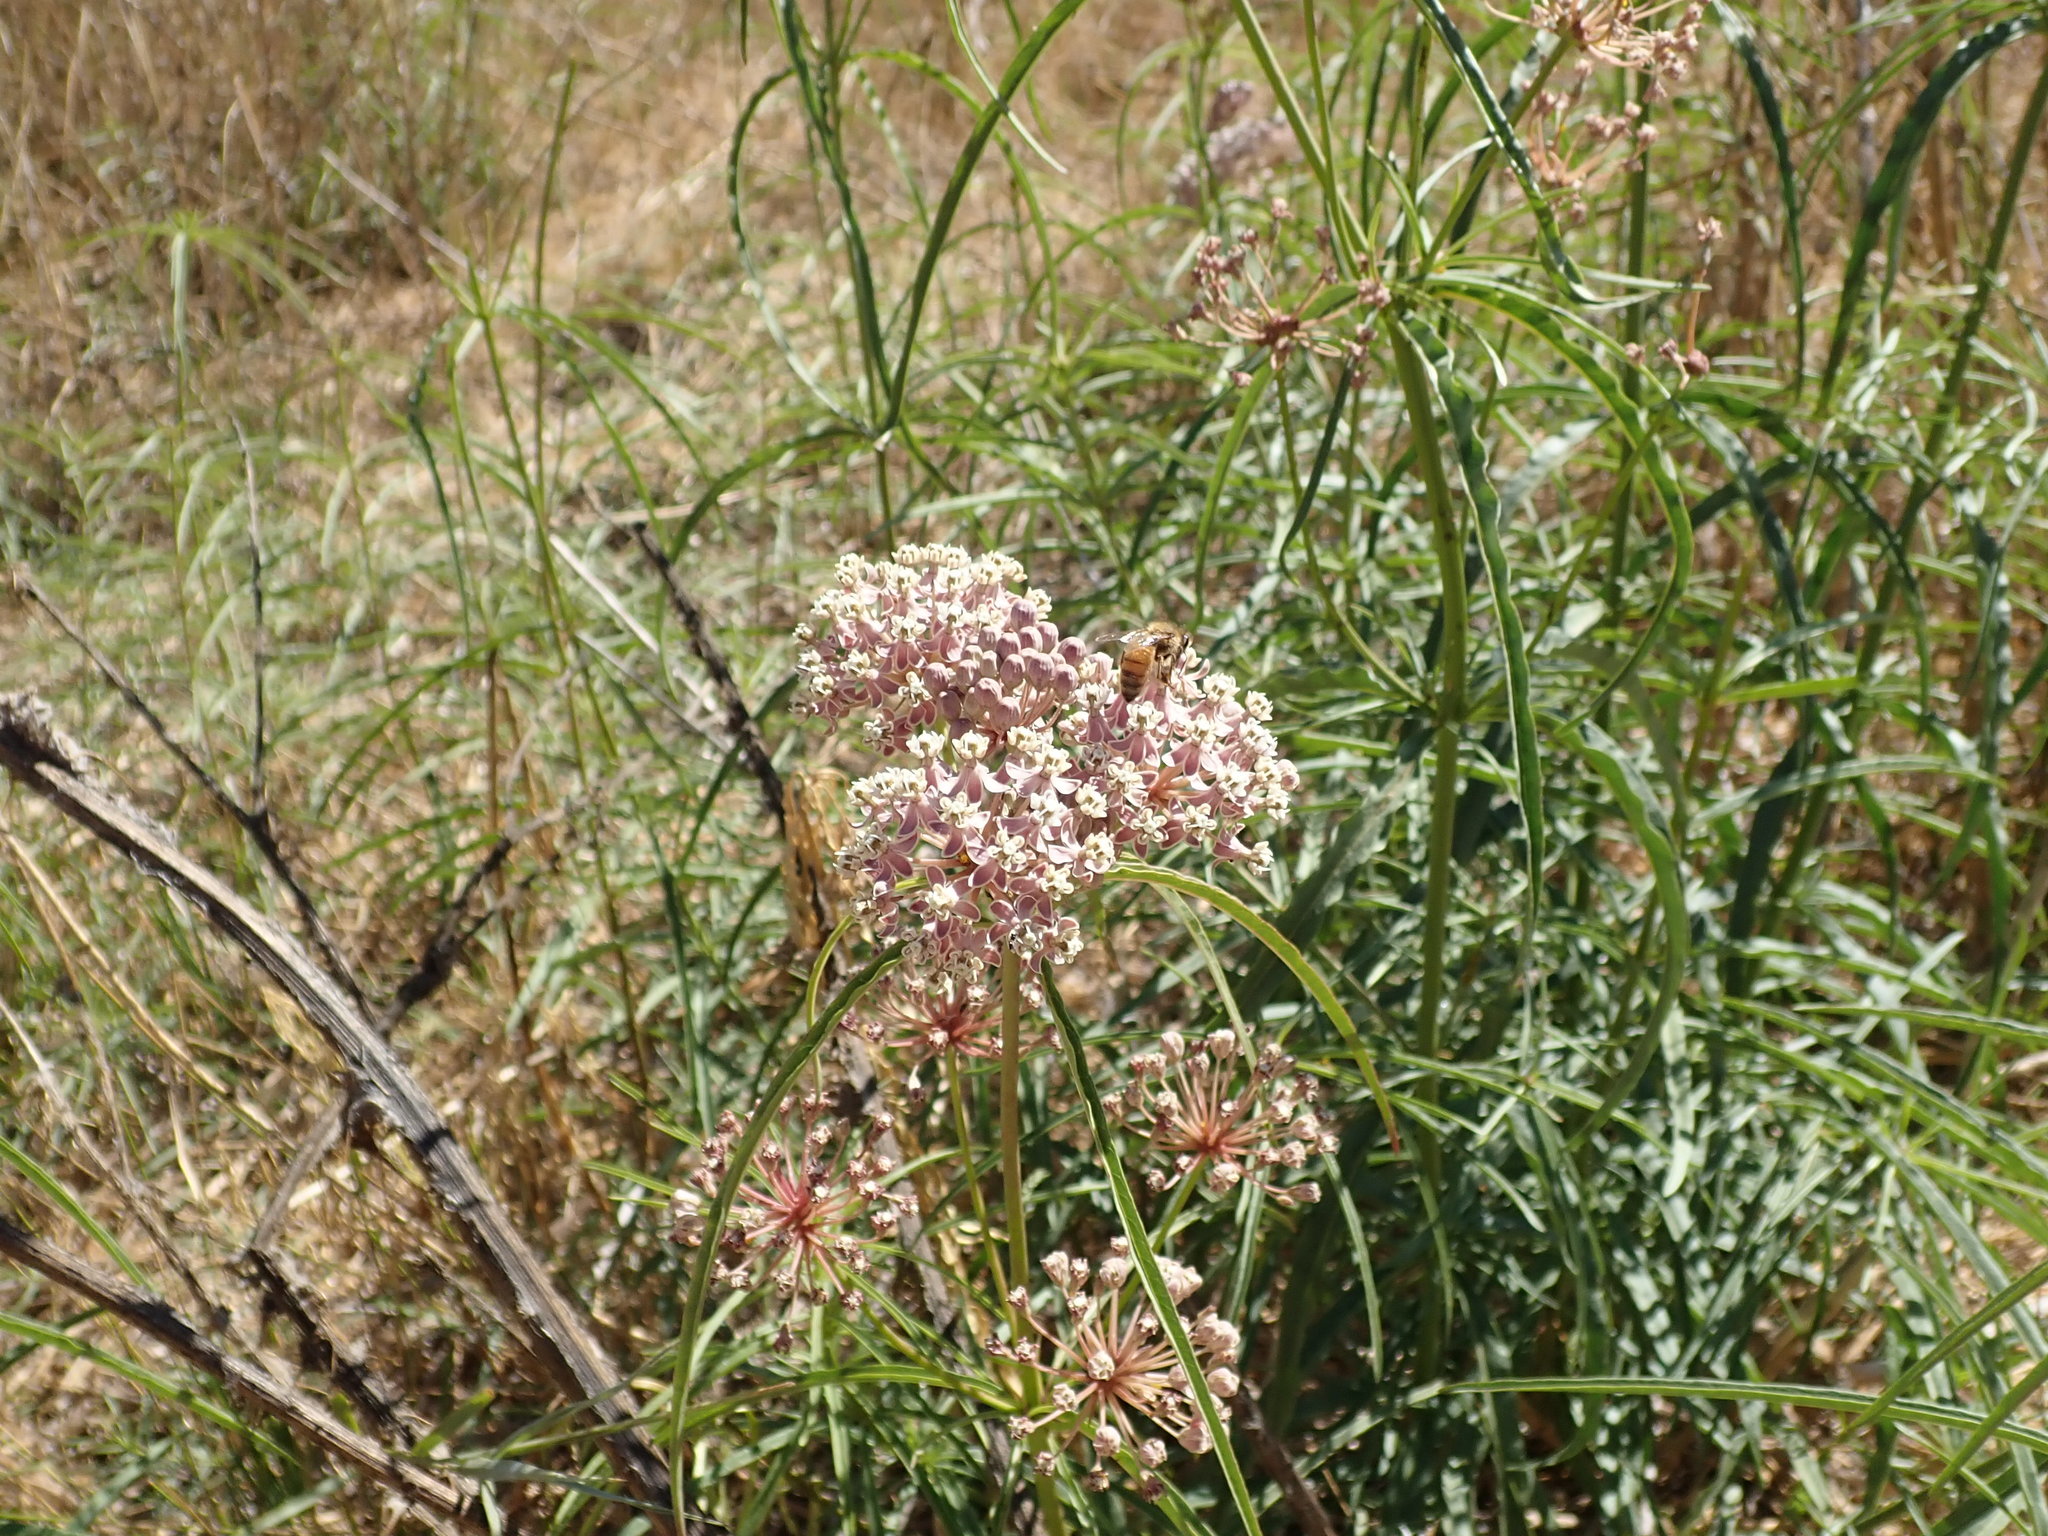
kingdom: Plantae
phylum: Tracheophyta
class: Magnoliopsida
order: Gentianales
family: Apocynaceae
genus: Asclepias
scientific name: Asclepias fascicularis
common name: Mexican milkweed
